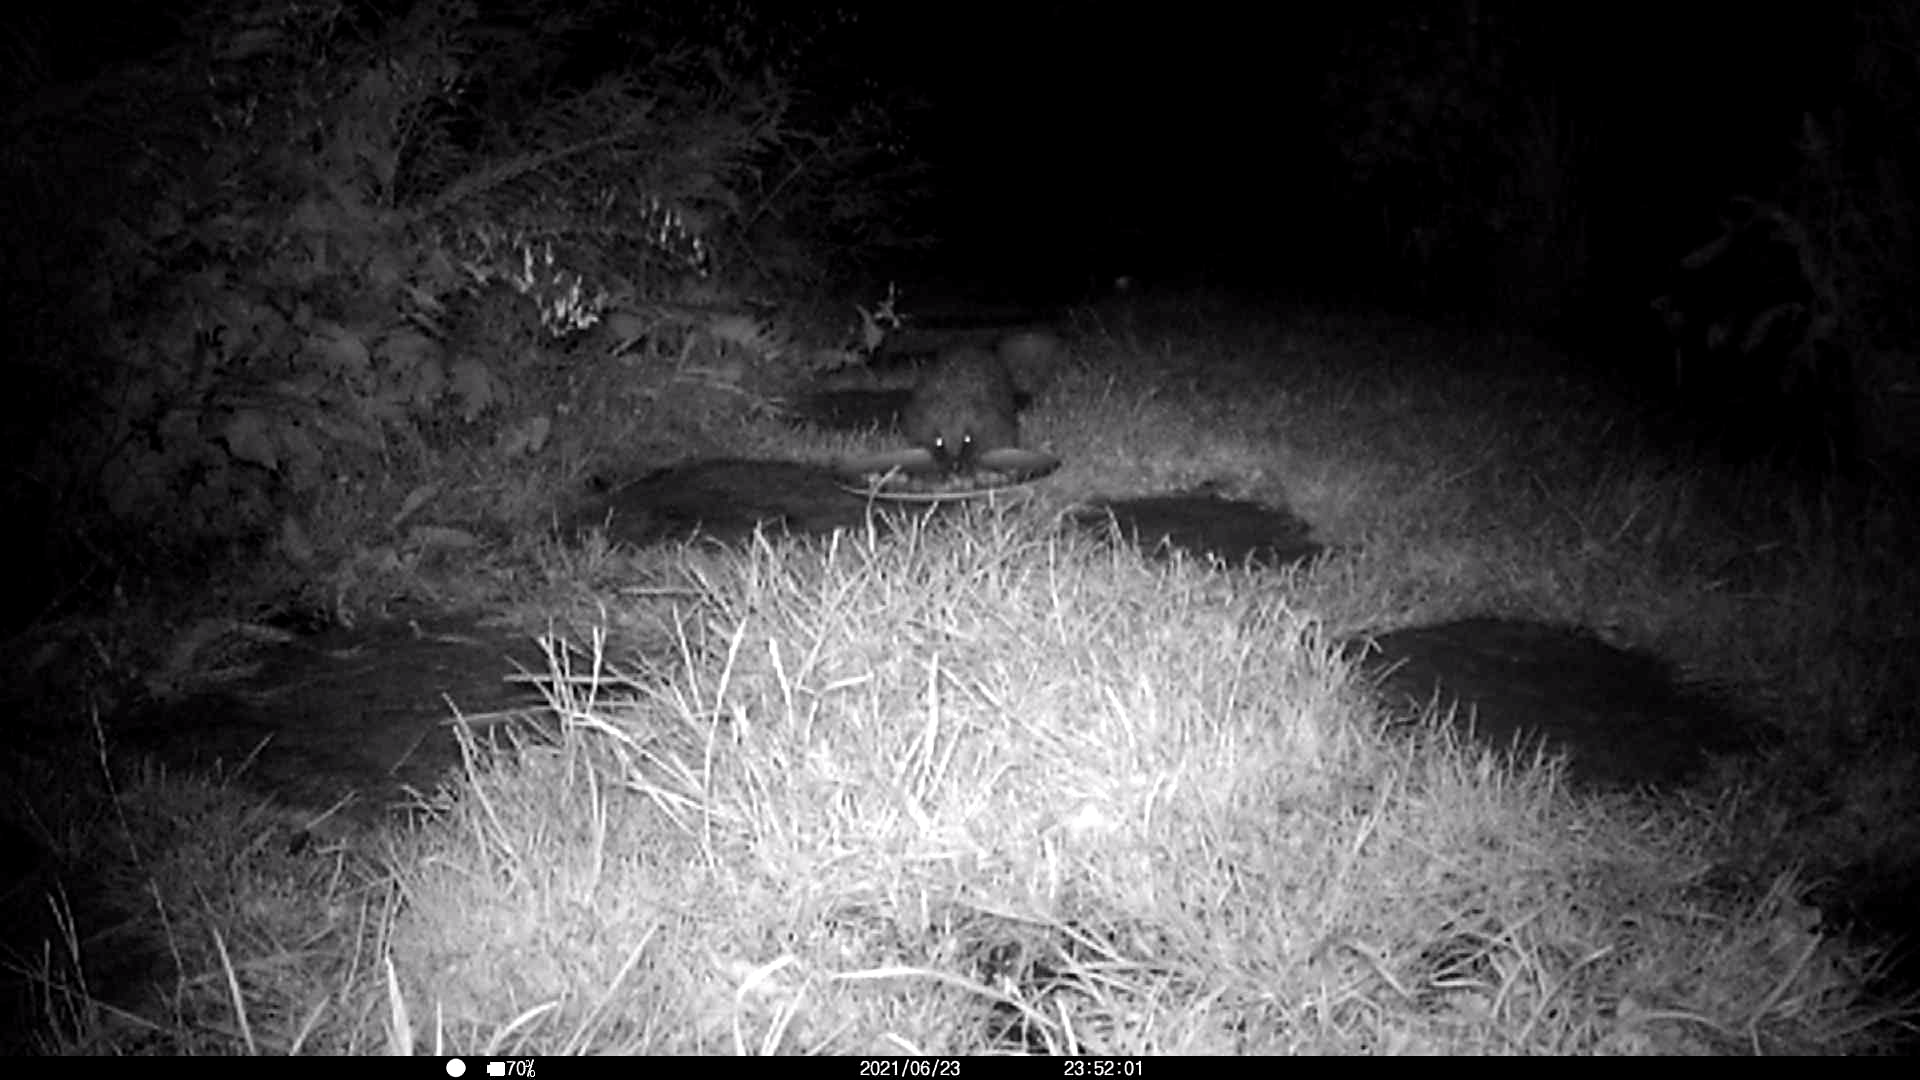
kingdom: Animalia
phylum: Chordata
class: Mammalia
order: Erinaceomorpha
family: Erinaceidae
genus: Erinaceus
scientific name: Erinaceus europaeus
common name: West european hedgehog
